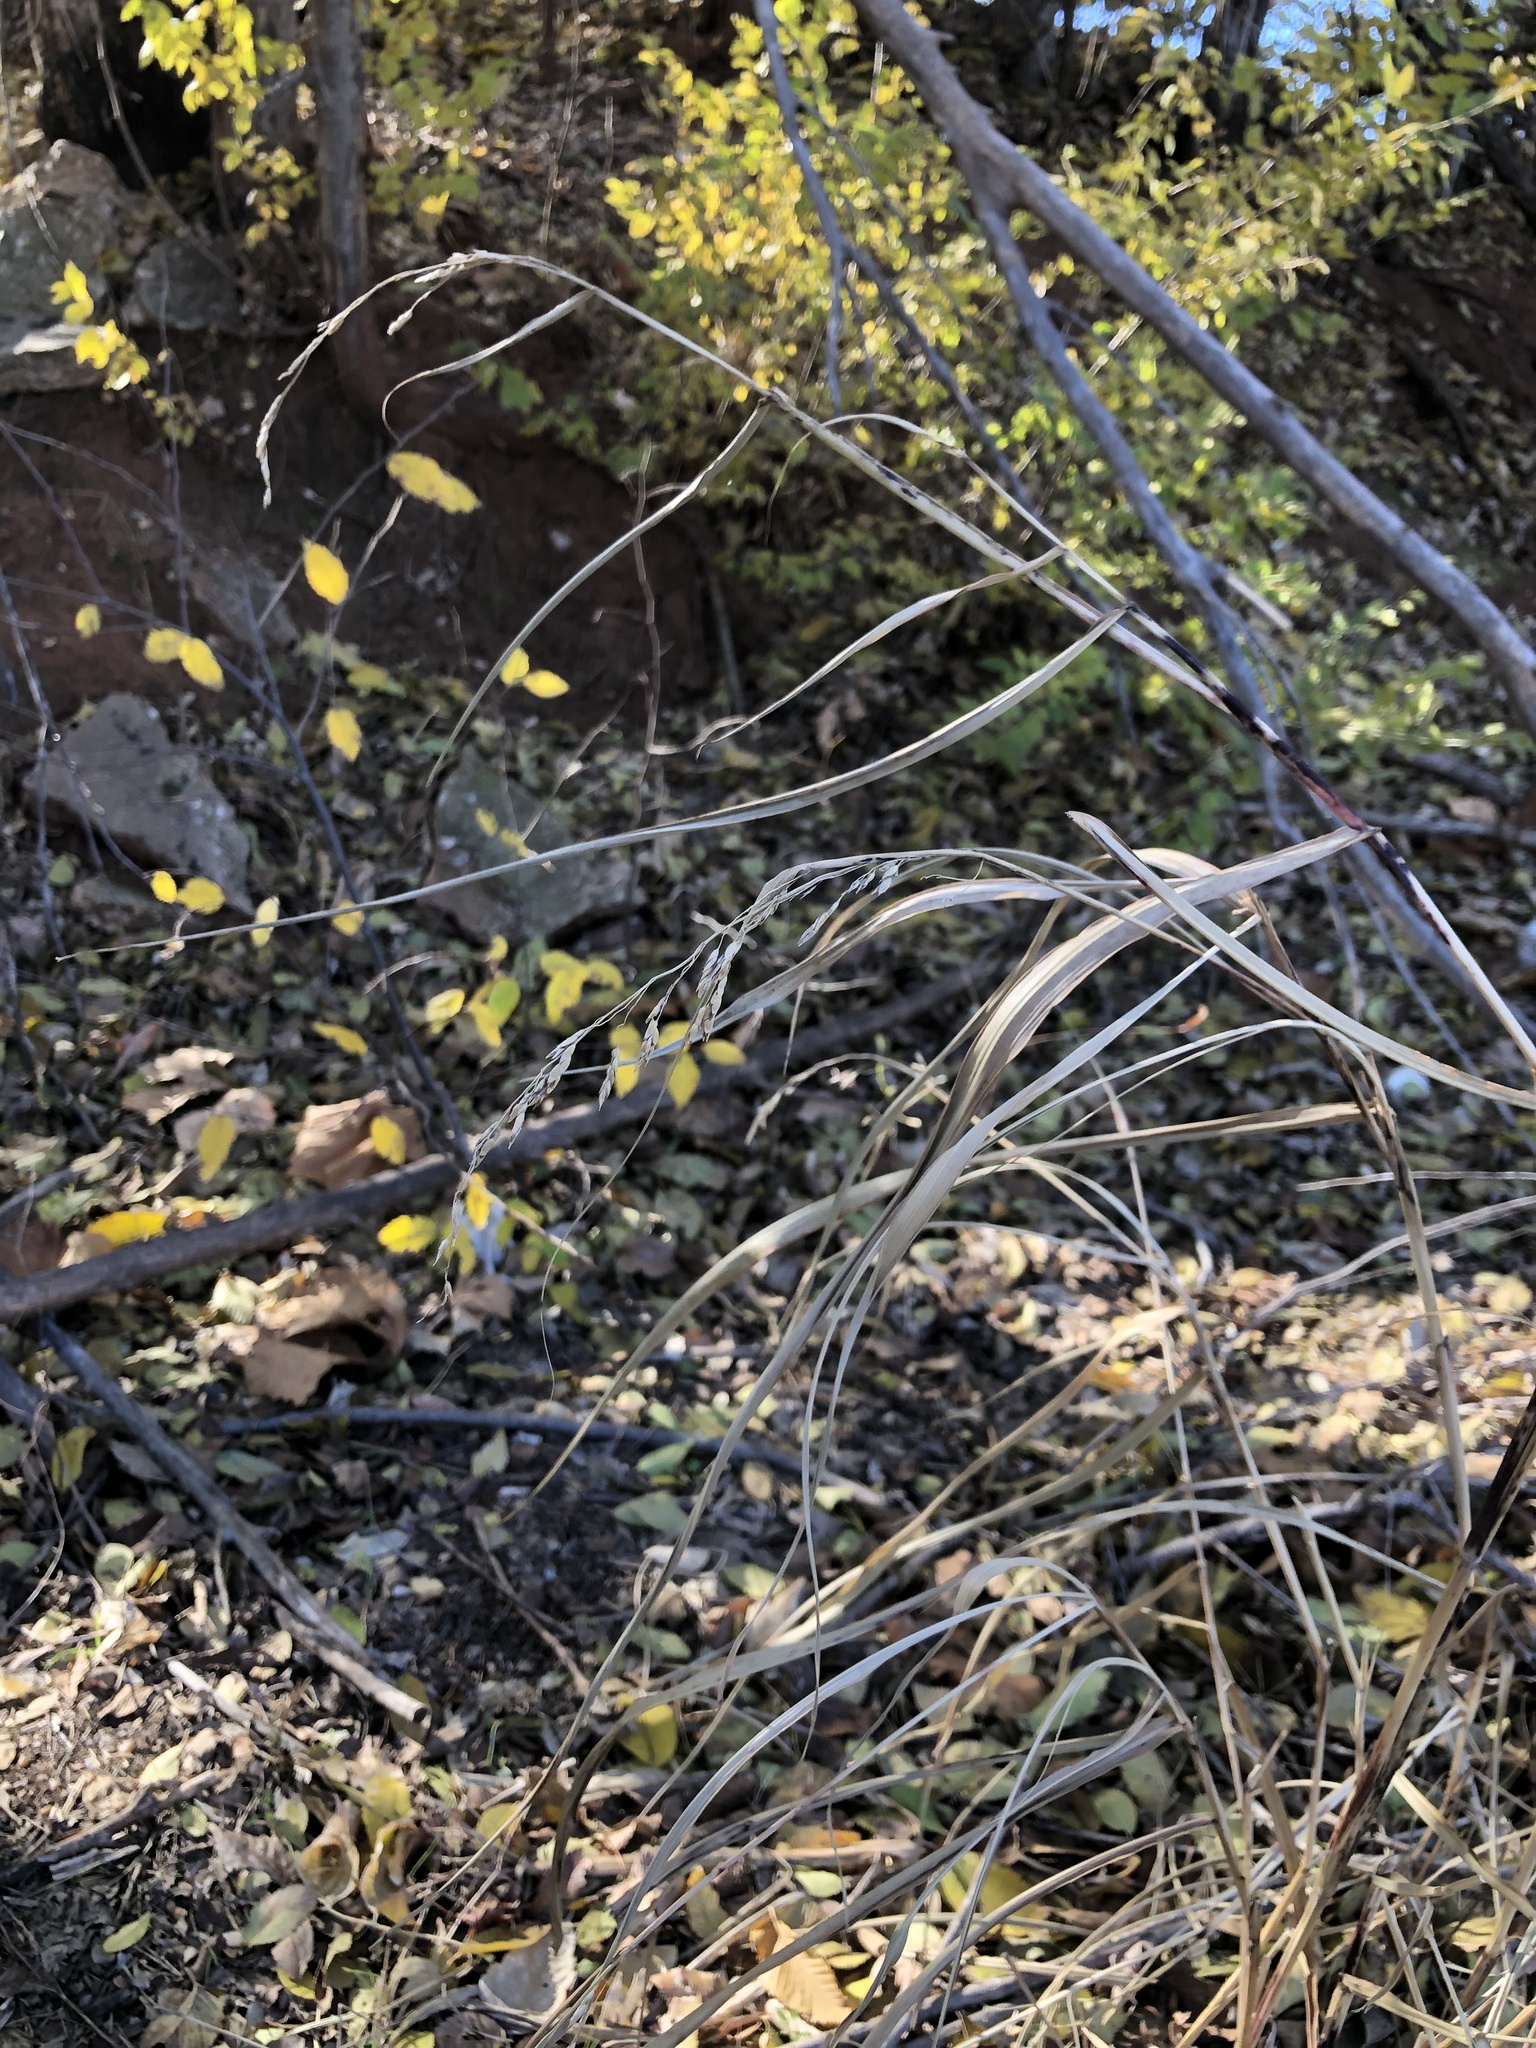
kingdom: Plantae
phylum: Tracheophyta
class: Liliopsida
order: Poales
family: Poaceae
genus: Sorghum
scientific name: Sorghum halepense
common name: Johnson-grass
